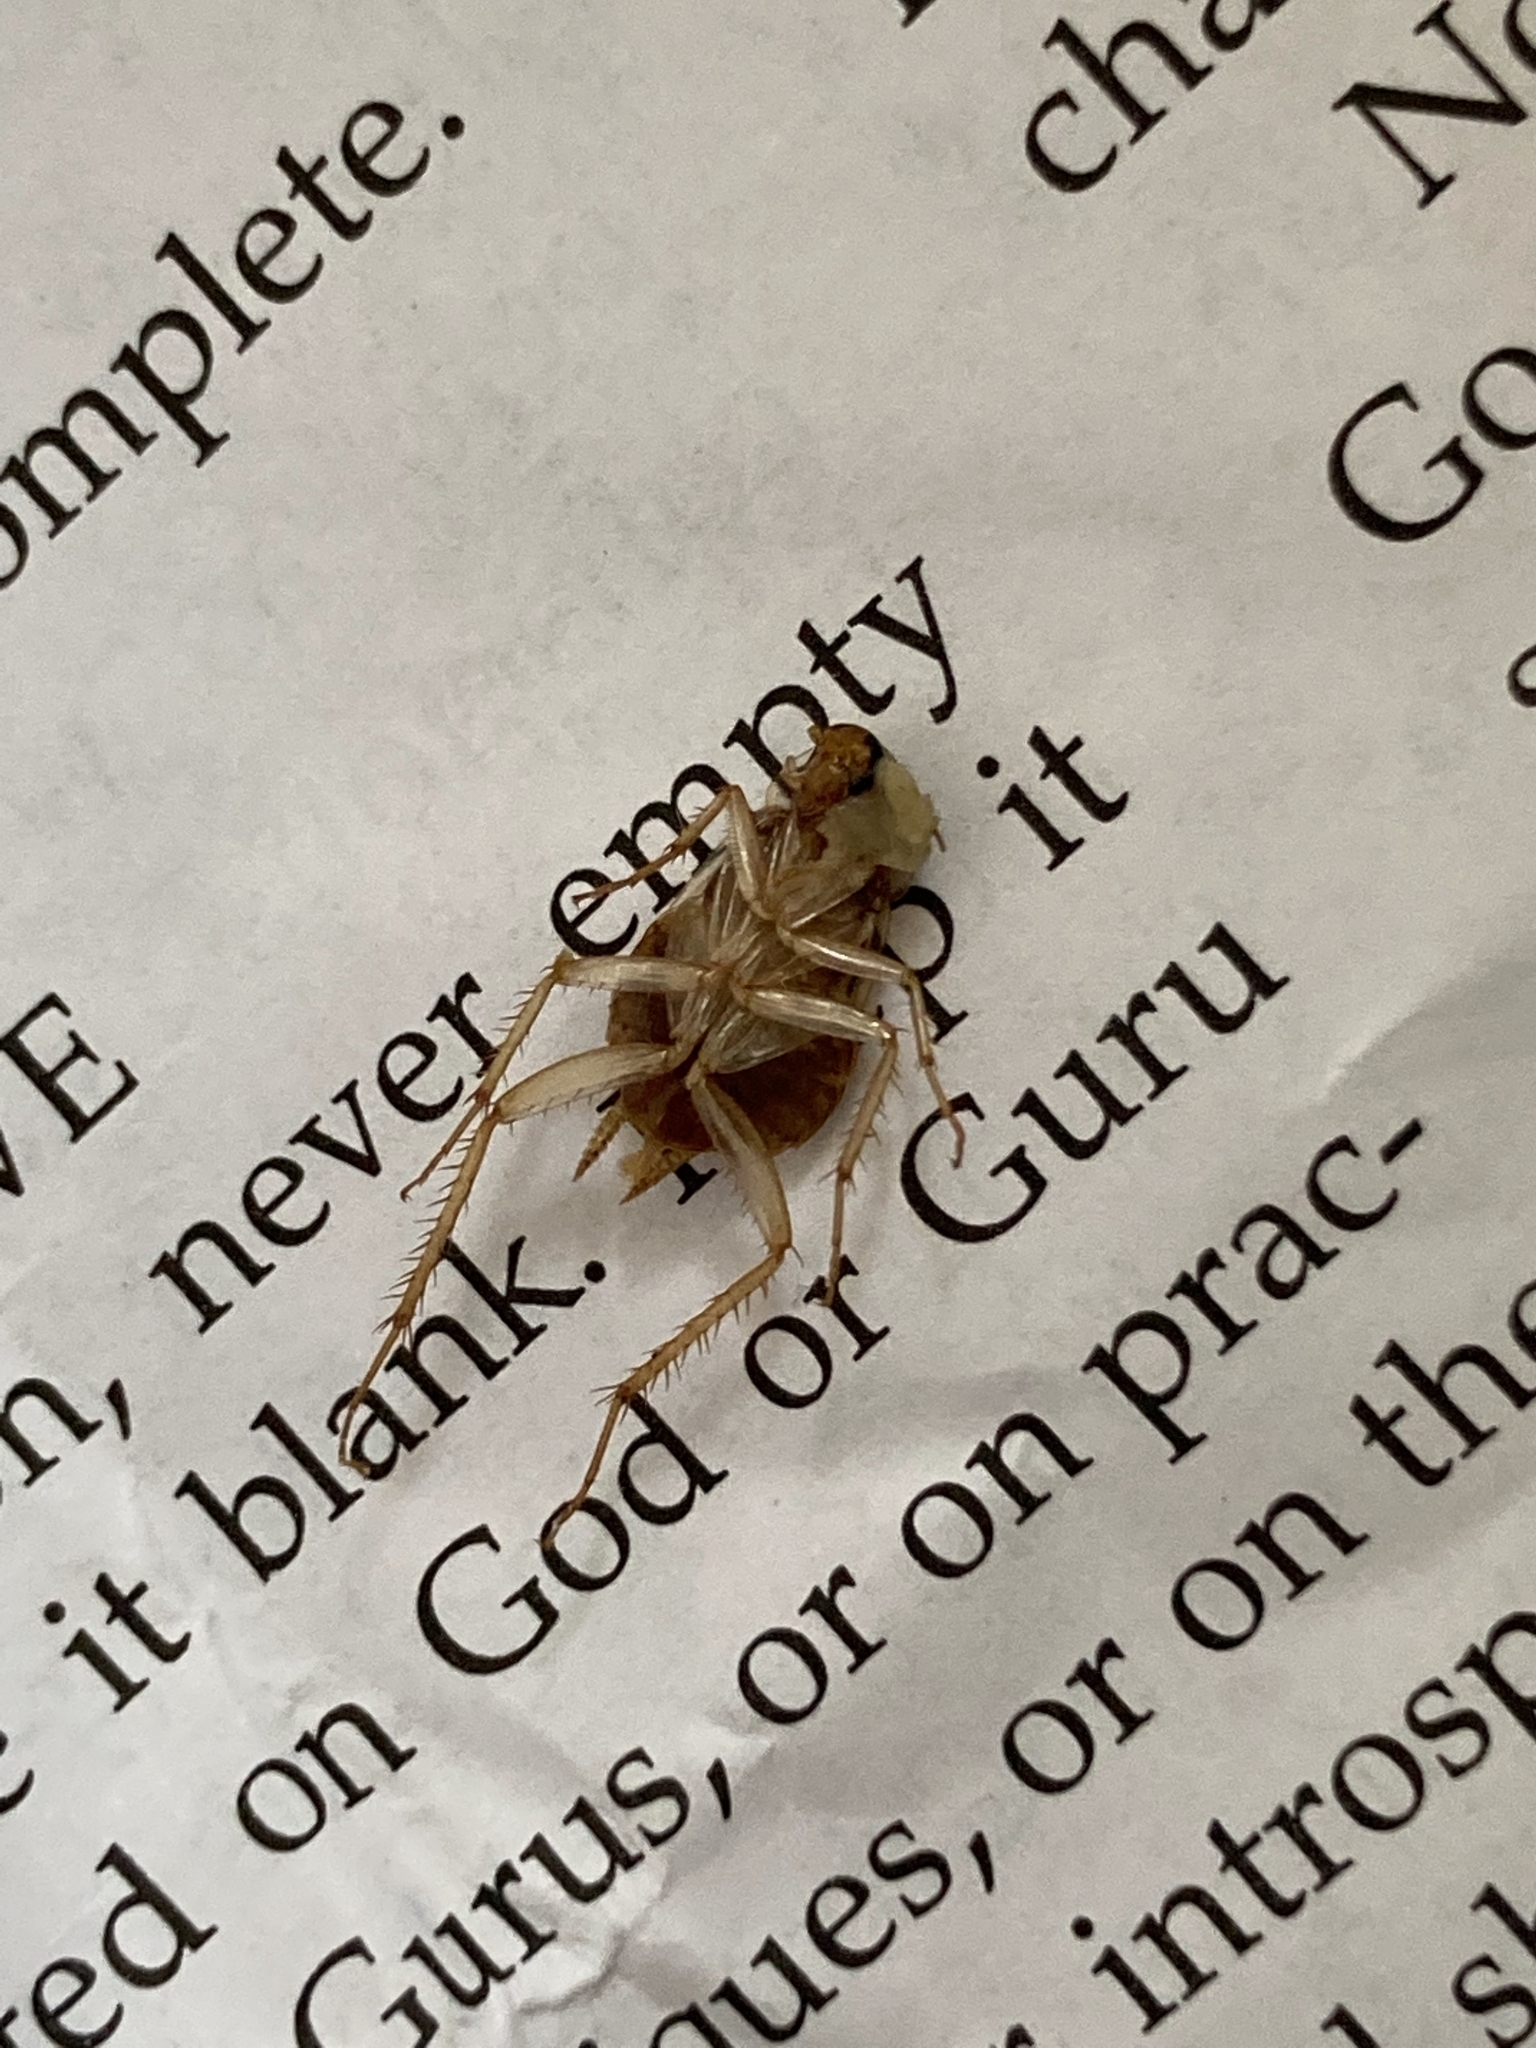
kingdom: Animalia
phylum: Arthropoda
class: Insecta
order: Blattodea
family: Ectobiidae
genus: Supella
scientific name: Supella longipalpa
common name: Brown-banded cockroach
